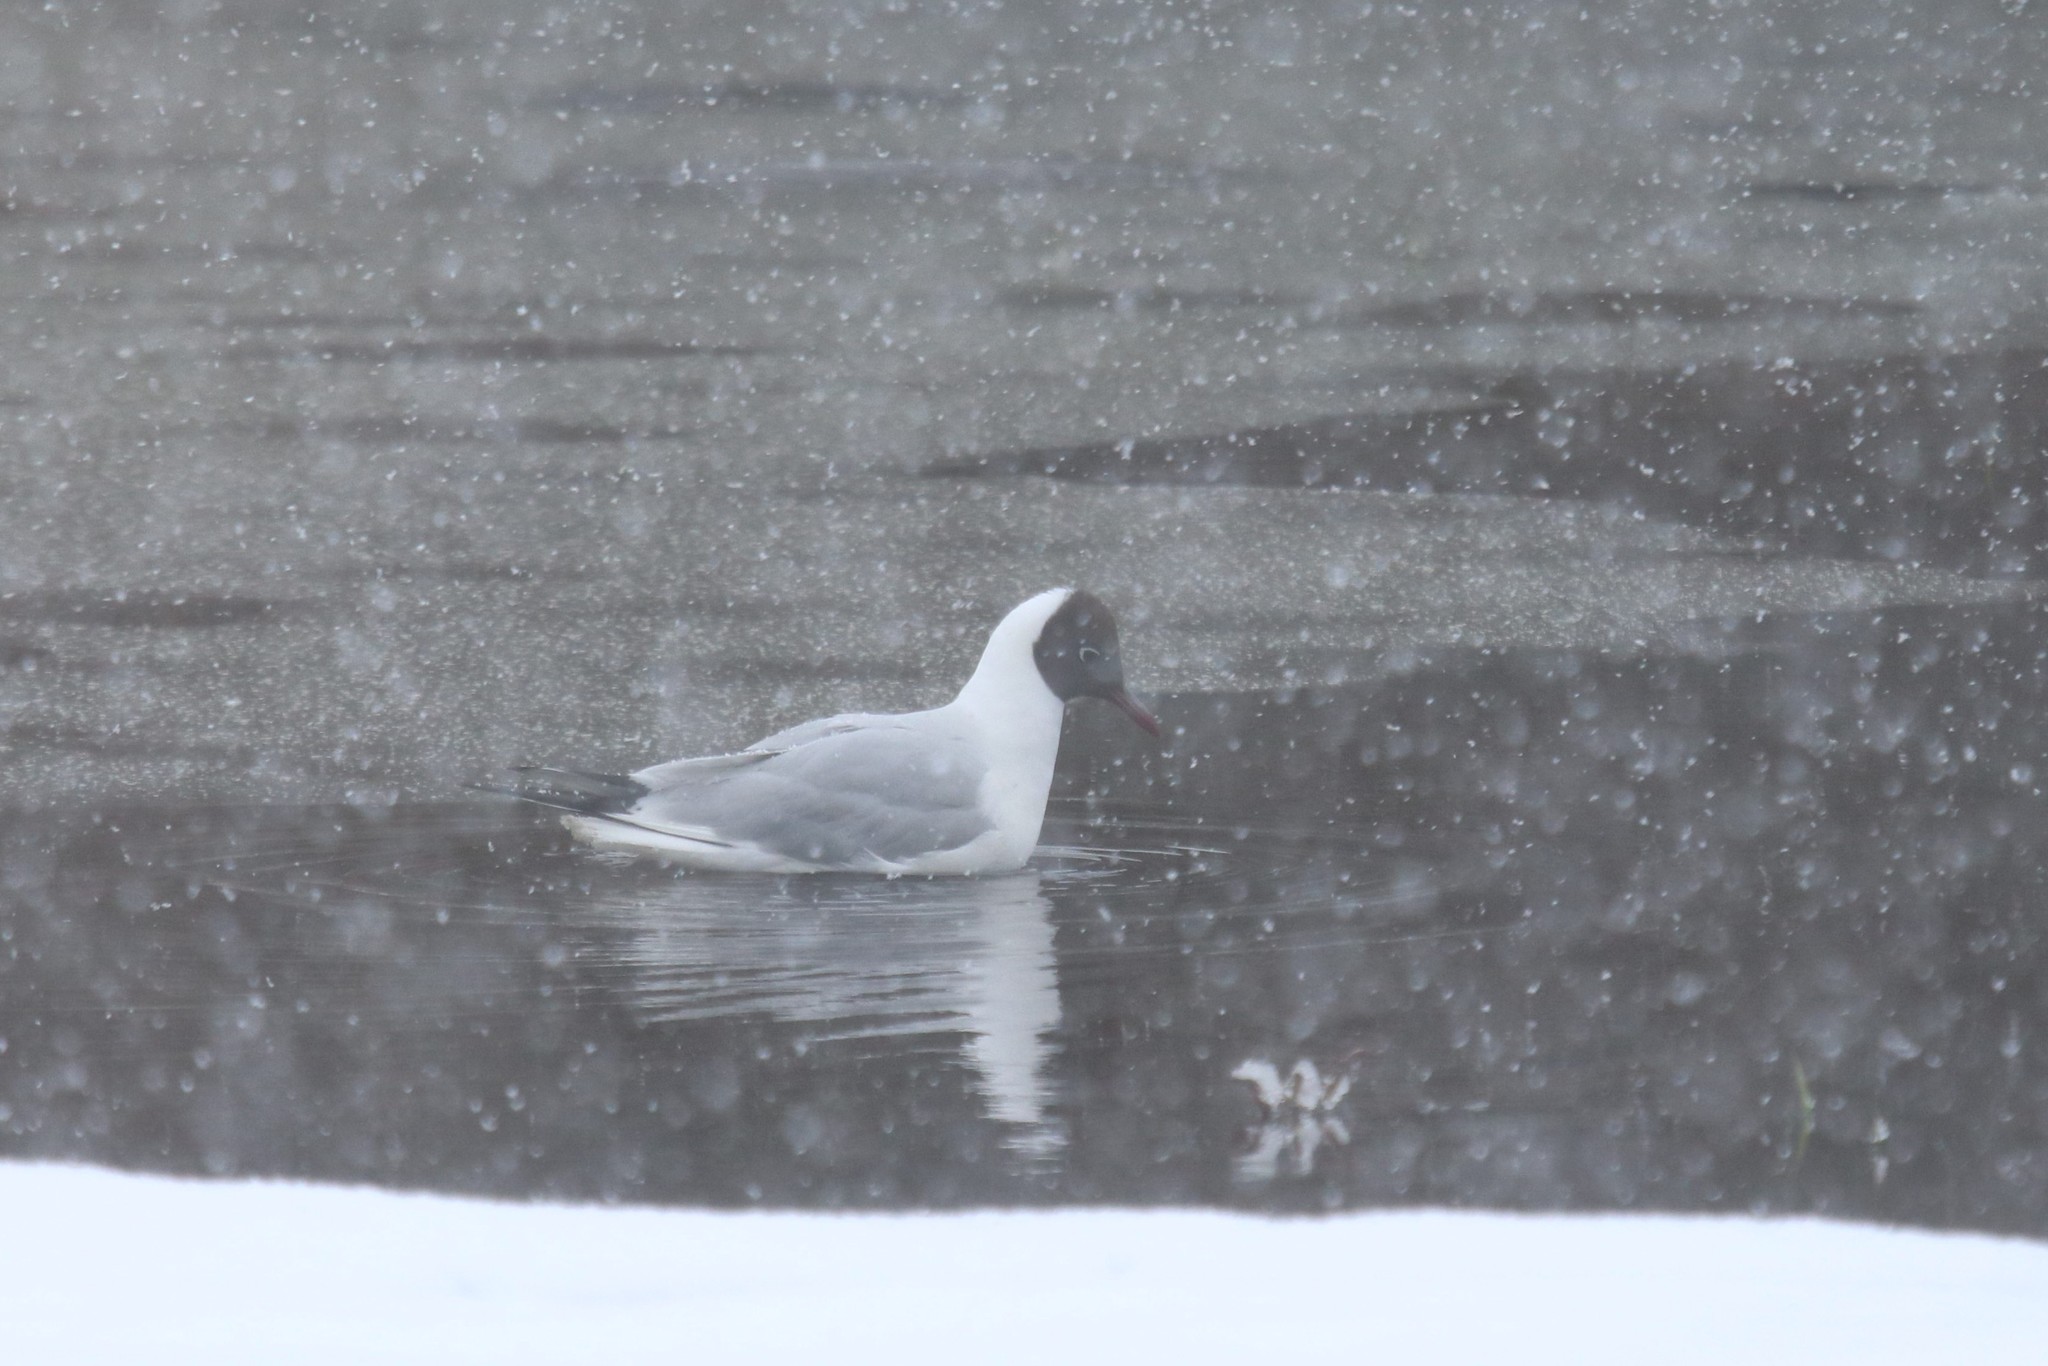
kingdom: Animalia
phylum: Chordata
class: Aves
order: Charadriiformes
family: Laridae
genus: Chroicocephalus
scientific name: Chroicocephalus ridibundus
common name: Black-headed gull
